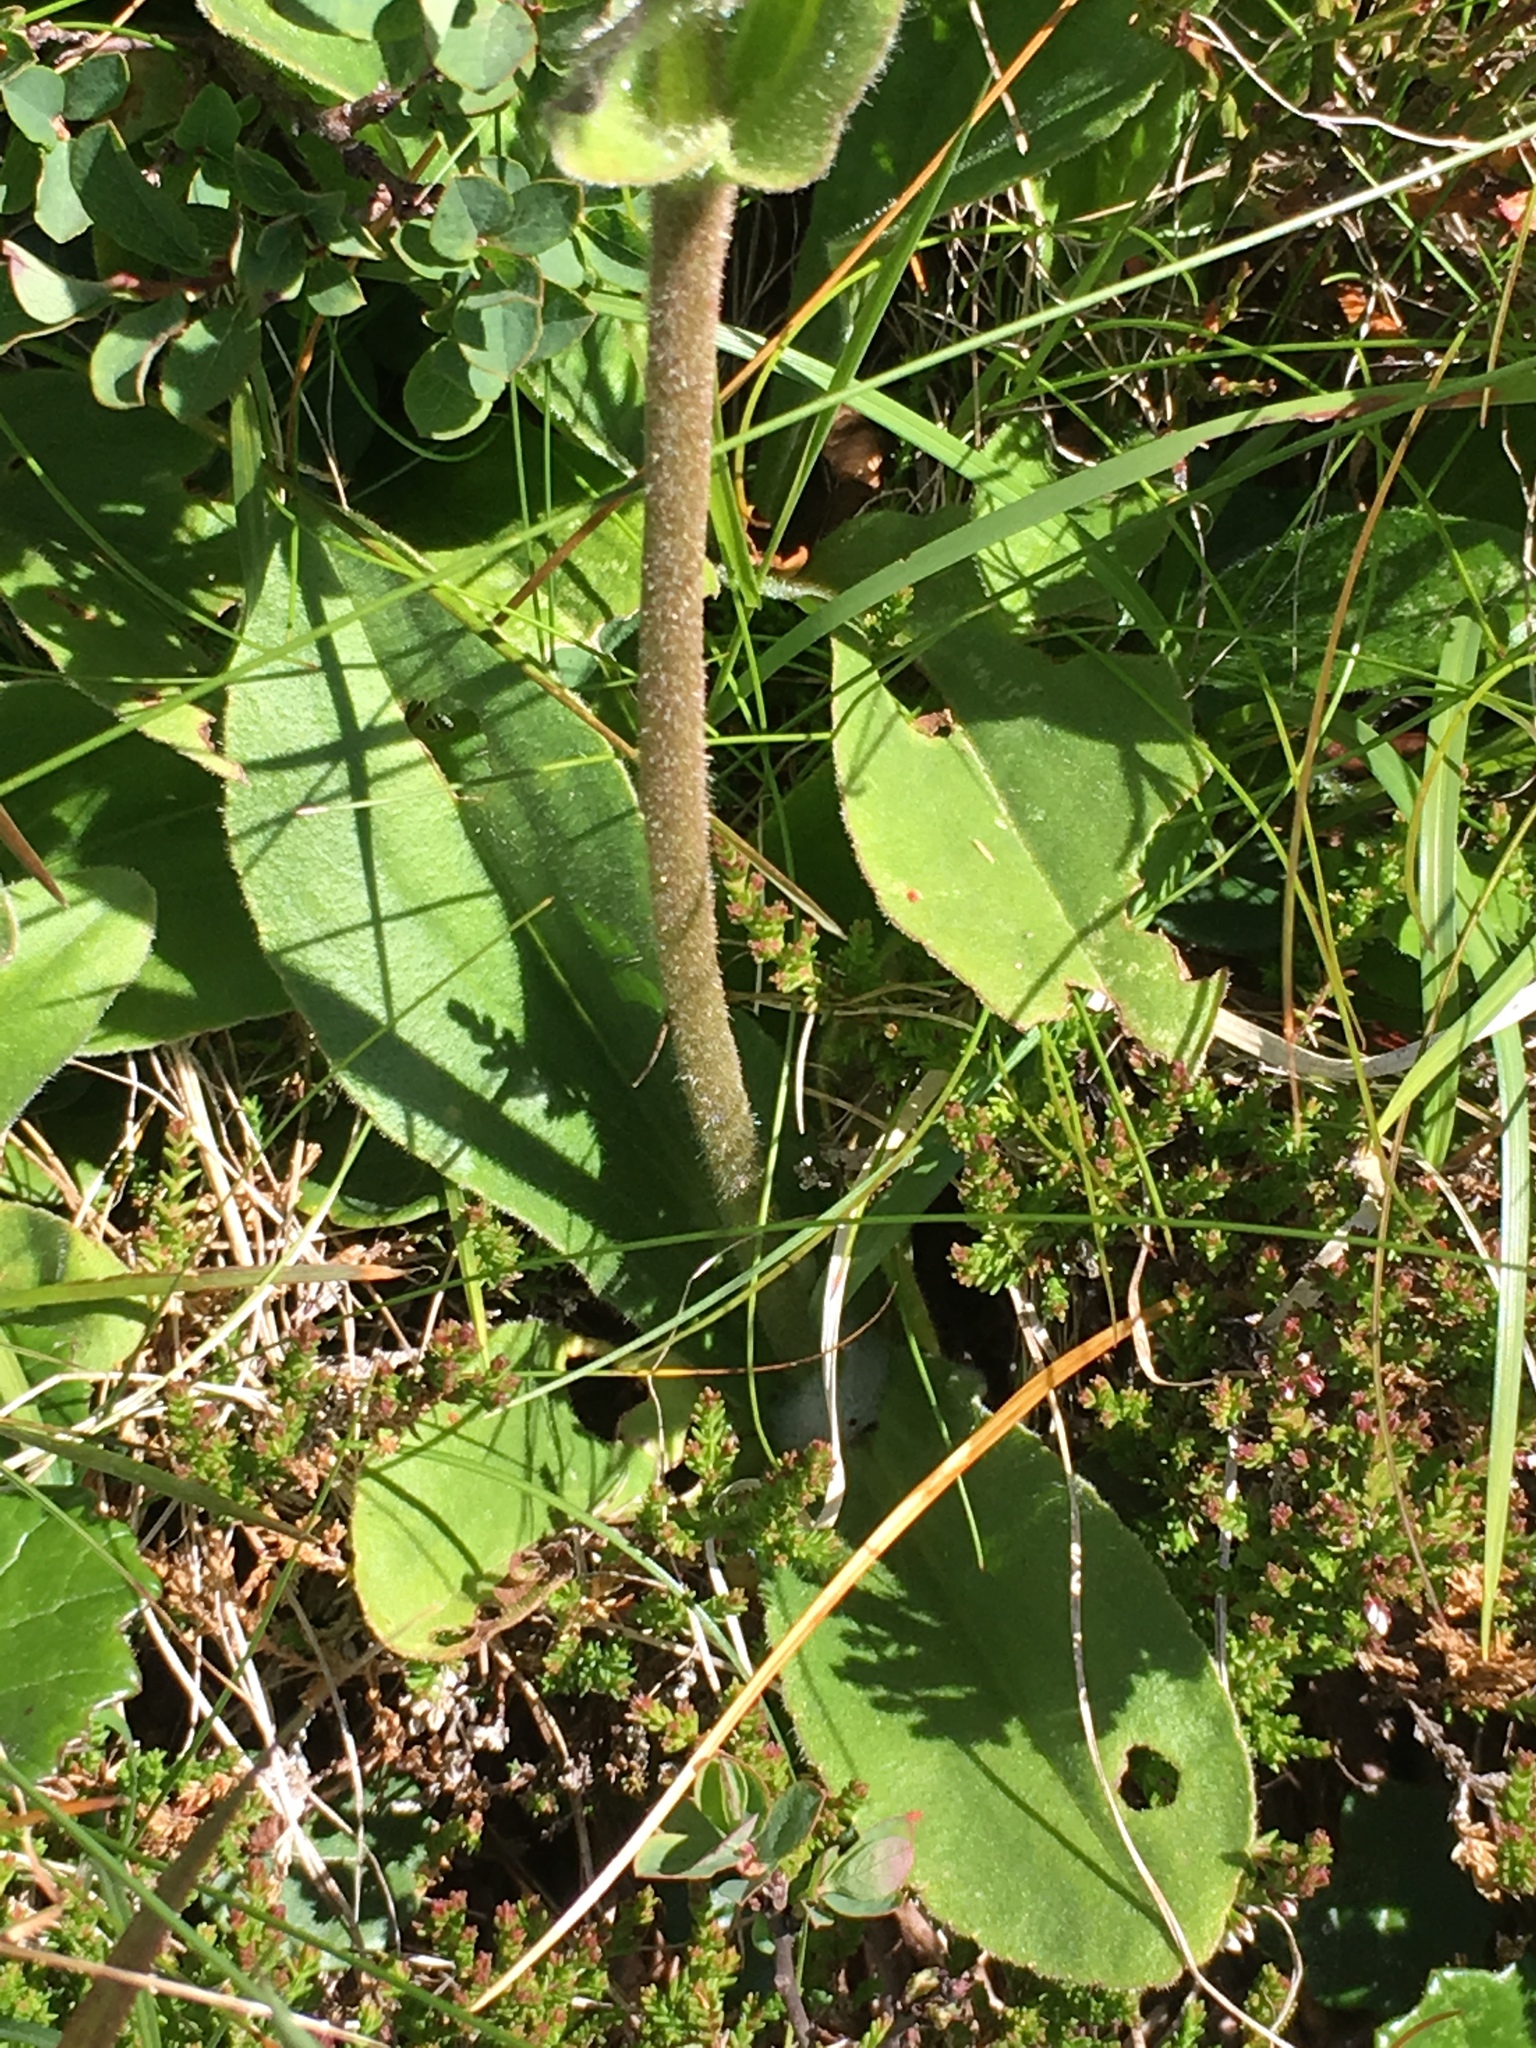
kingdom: Plantae
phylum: Tracheophyta
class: Magnoliopsida
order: Asterales
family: Asteraceae
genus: Arnica
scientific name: Arnica montana
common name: Leopard's bane
